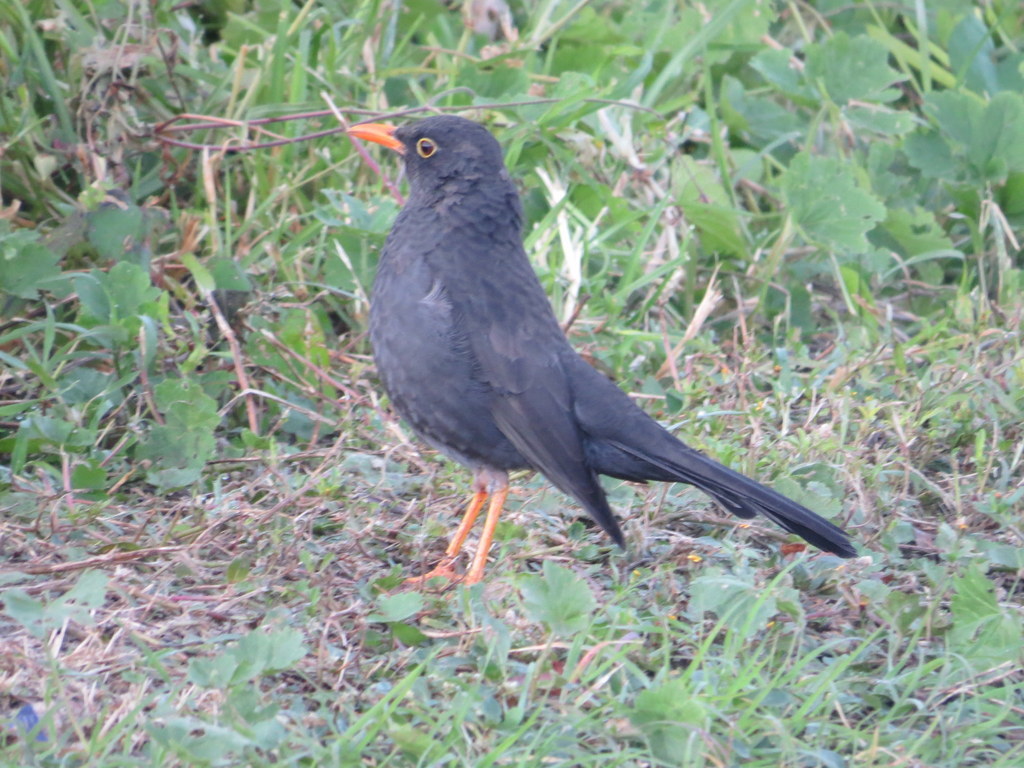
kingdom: Animalia
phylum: Chordata
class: Aves
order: Passeriformes
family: Turdidae
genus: Turdus
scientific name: Turdus chiguanco
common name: Chiguanco thrush
